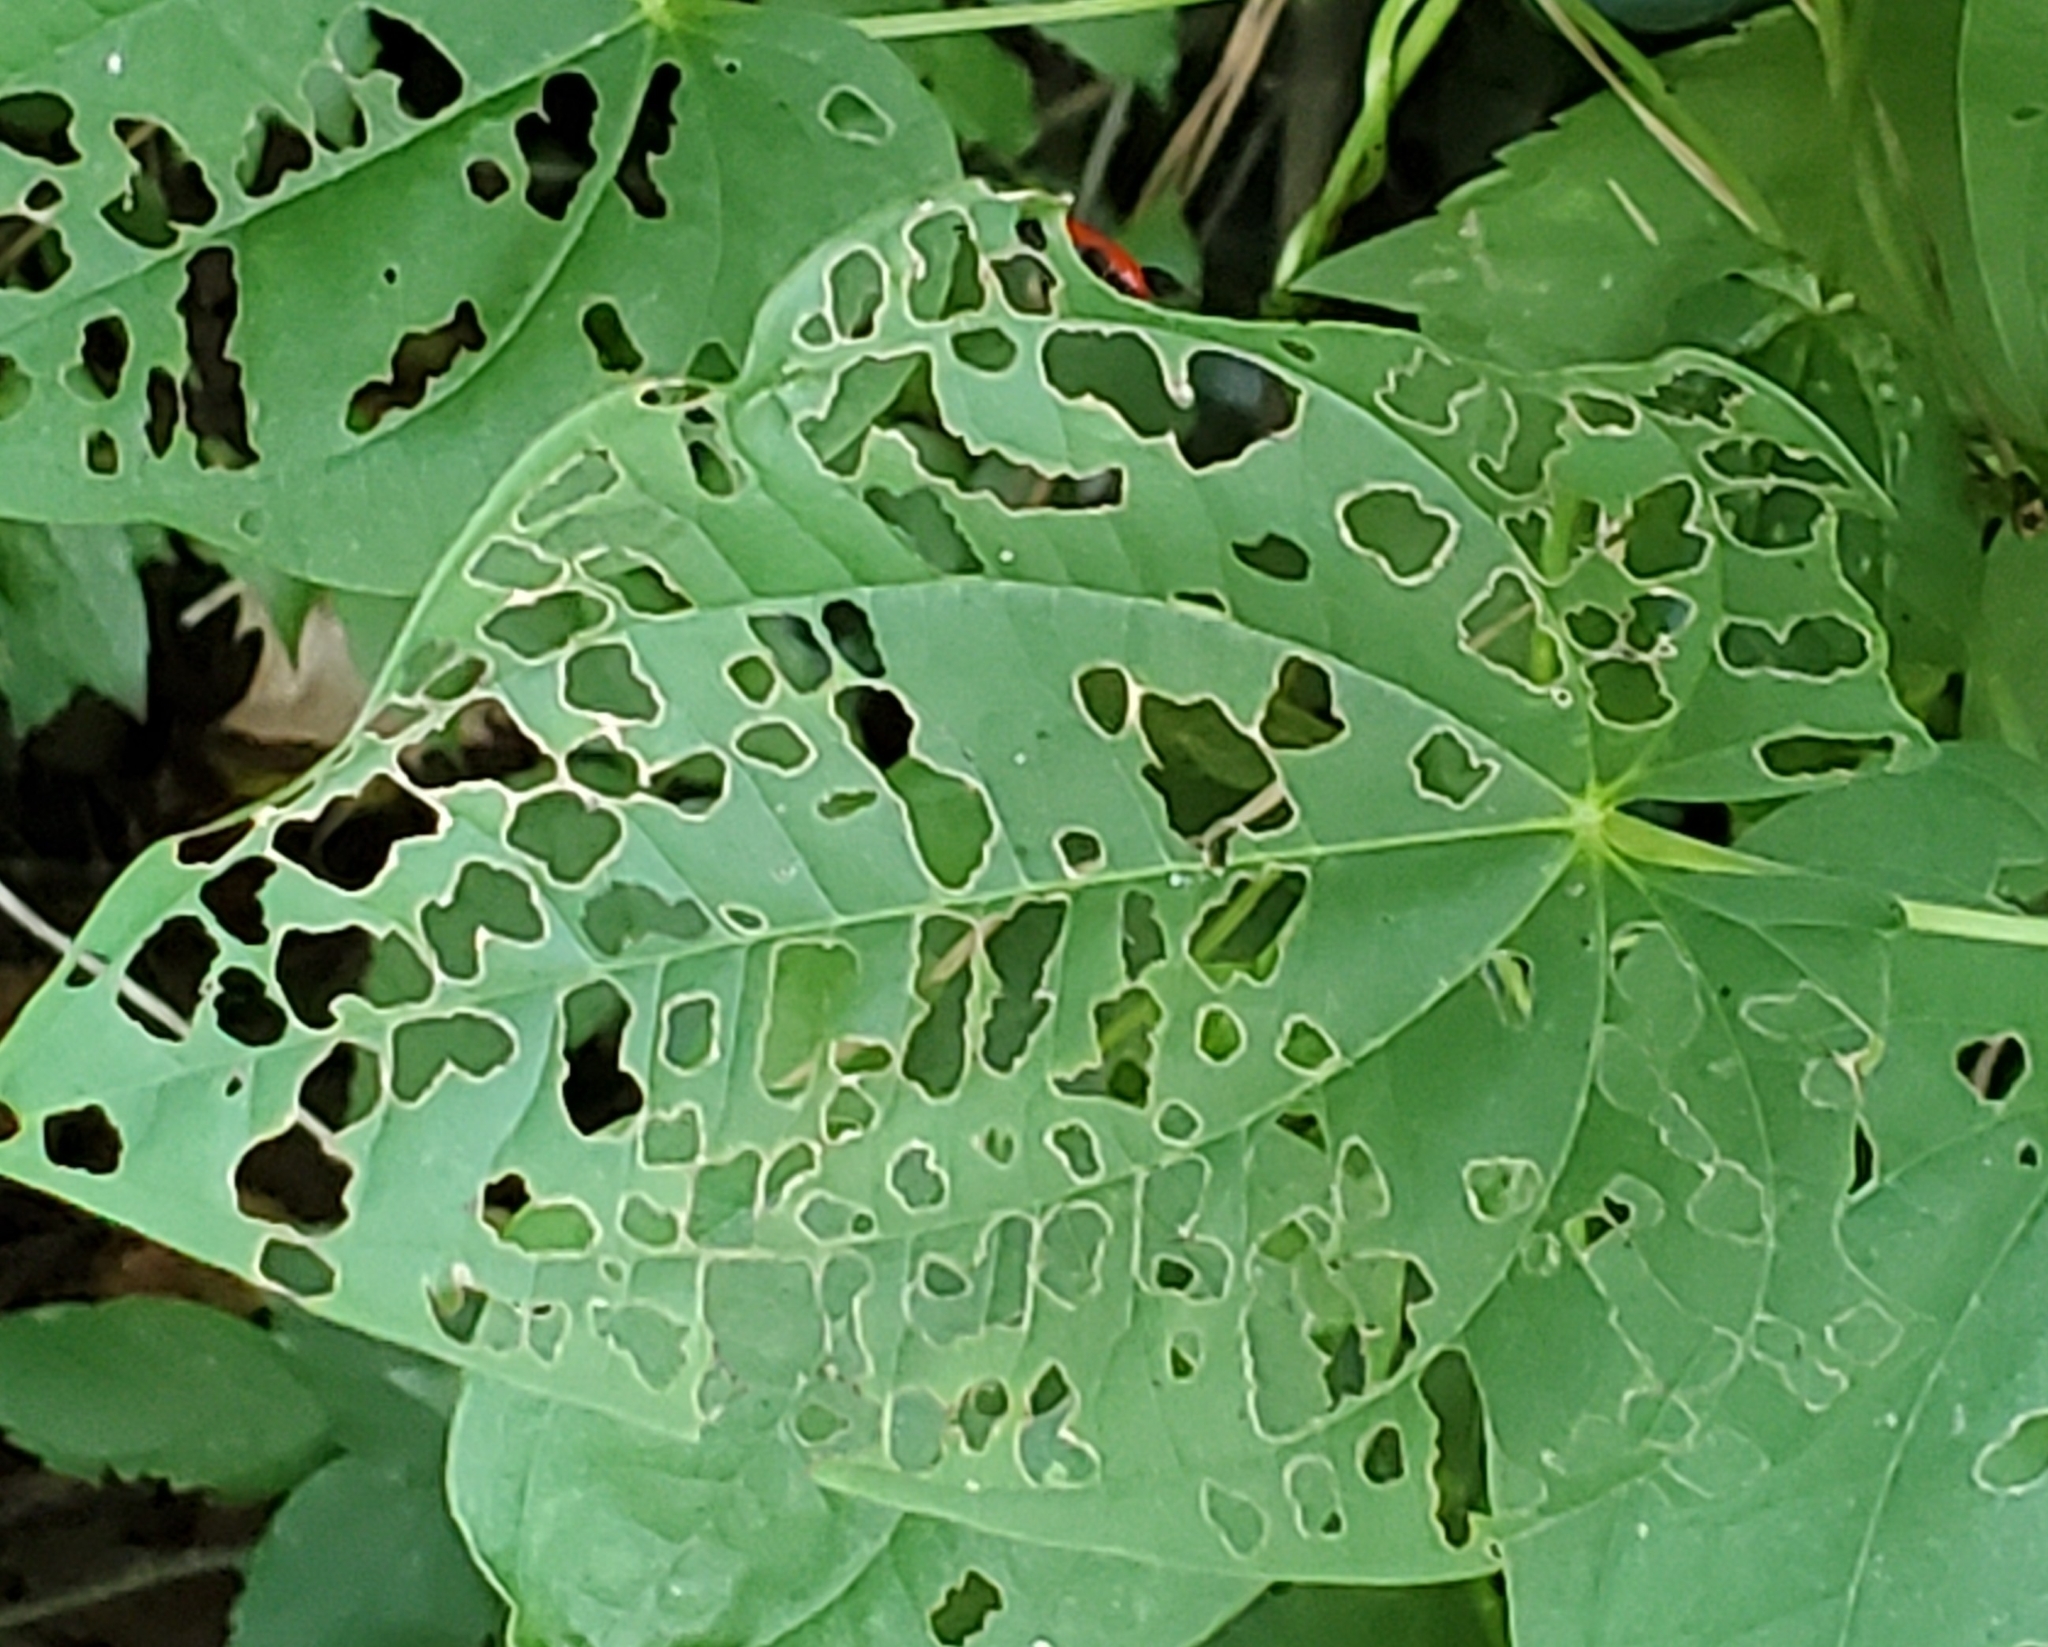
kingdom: Animalia
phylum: Arthropoda
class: Insecta
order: Coleoptera
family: Chrysomelidae
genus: Lilioceris
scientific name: Lilioceris cheni
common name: Leaf beetle
